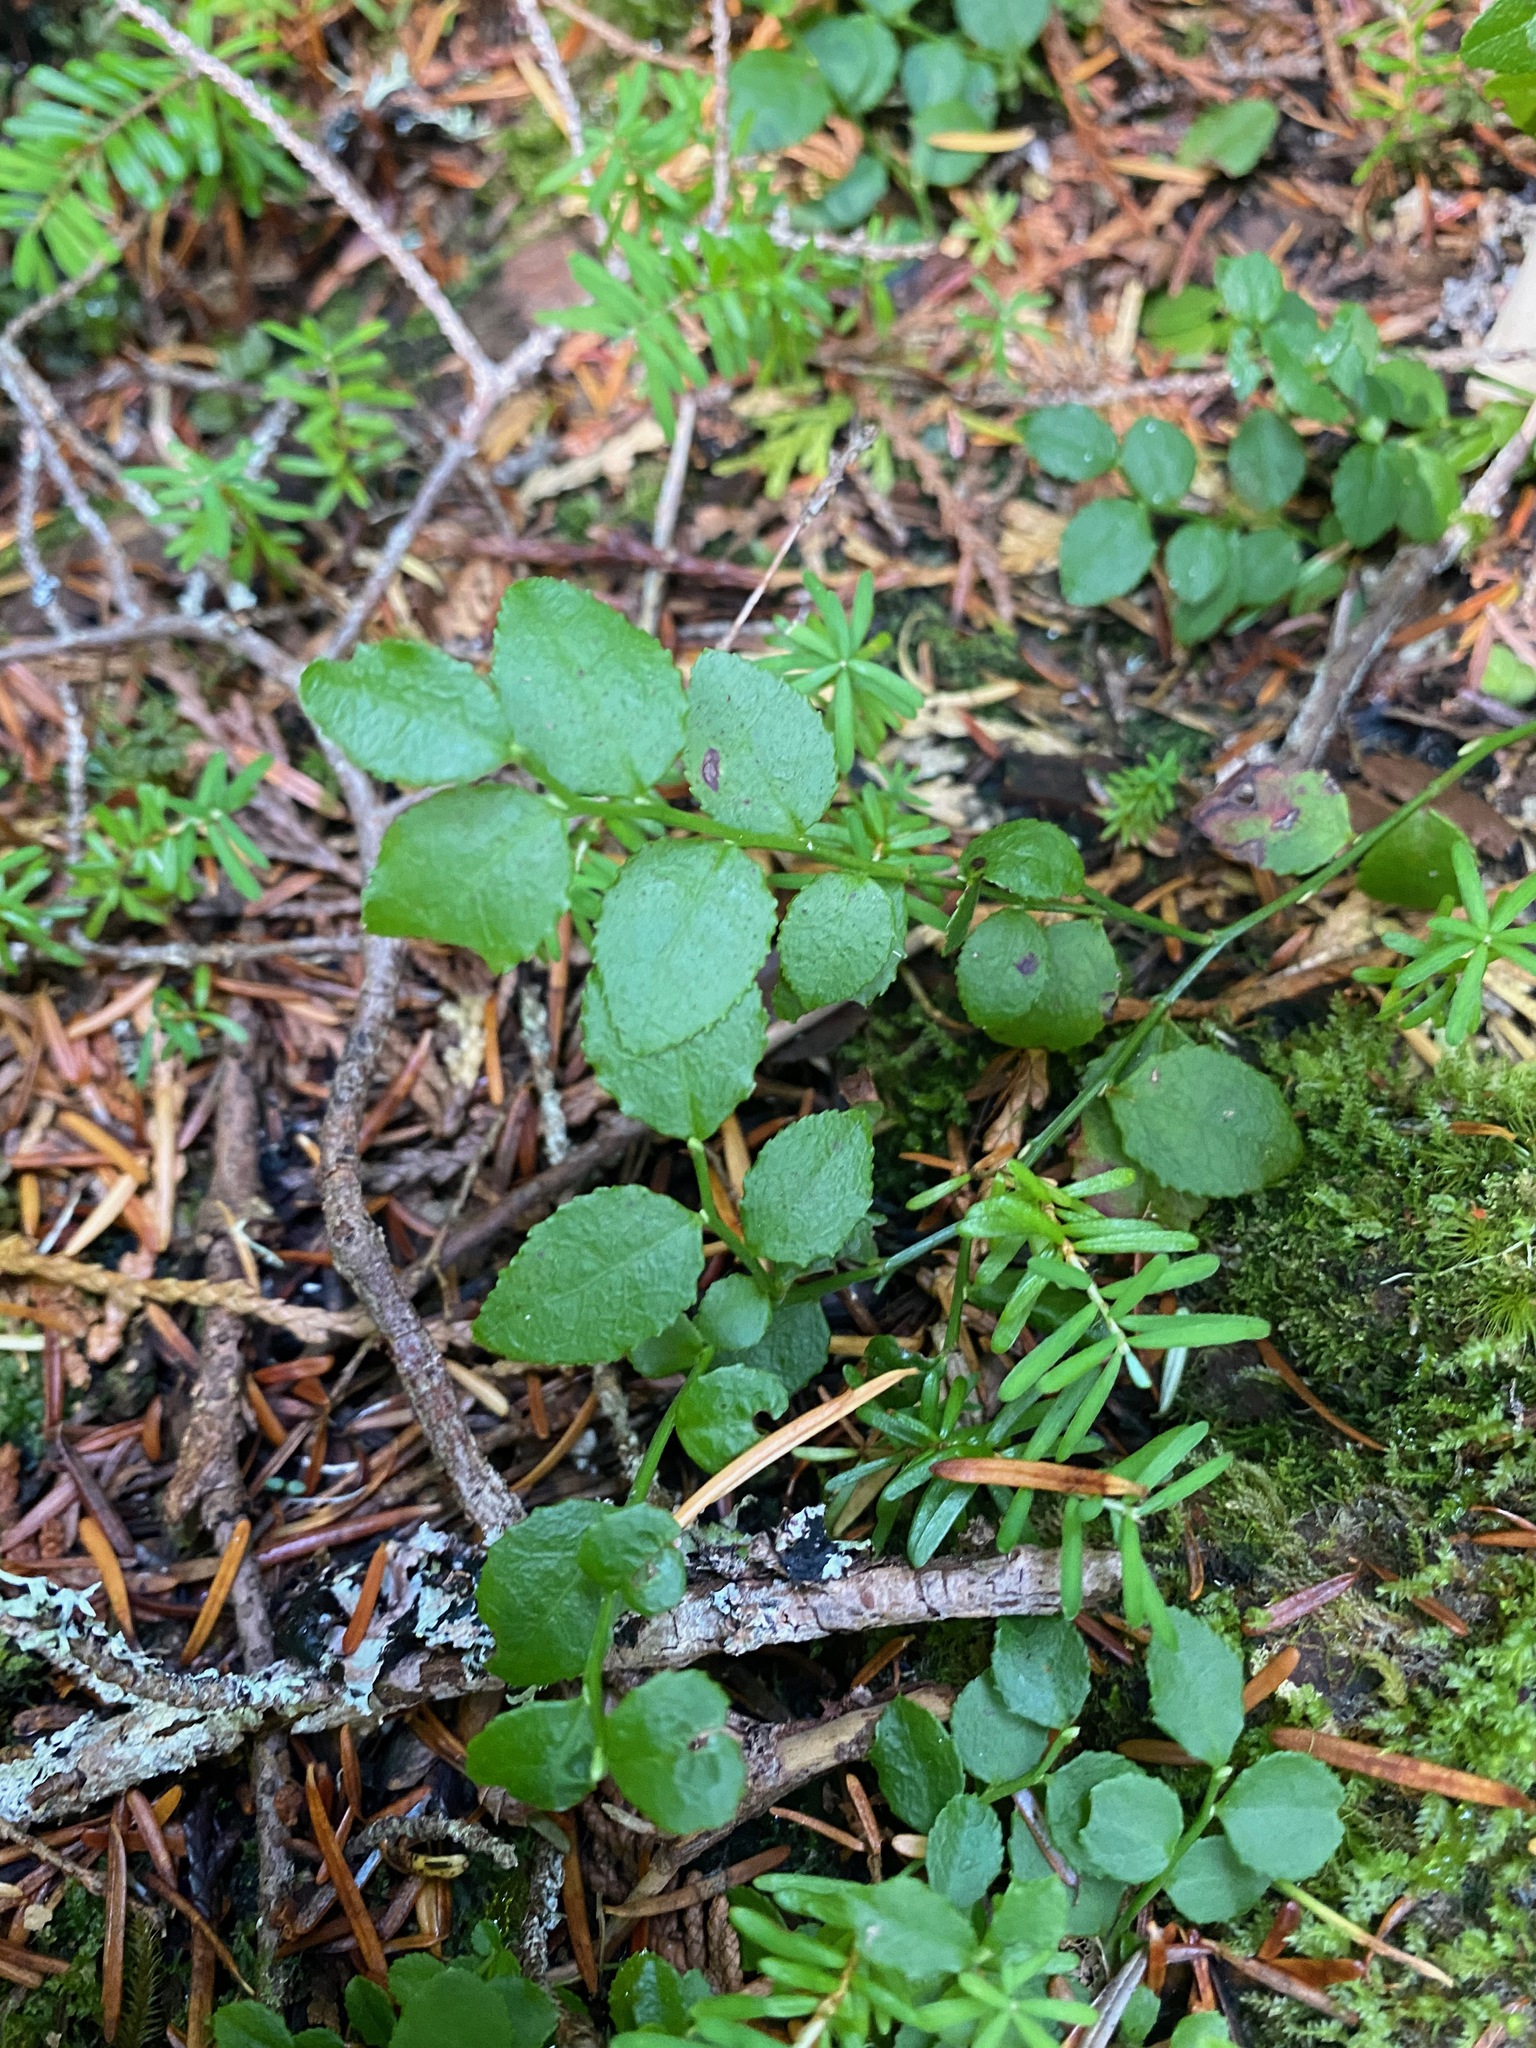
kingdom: Plantae
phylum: Tracheophyta
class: Magnoliopsida
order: Ericales
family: Ericaceae
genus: Vaccinium
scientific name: Vaccinium parvifolium
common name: Red-huckleberry
